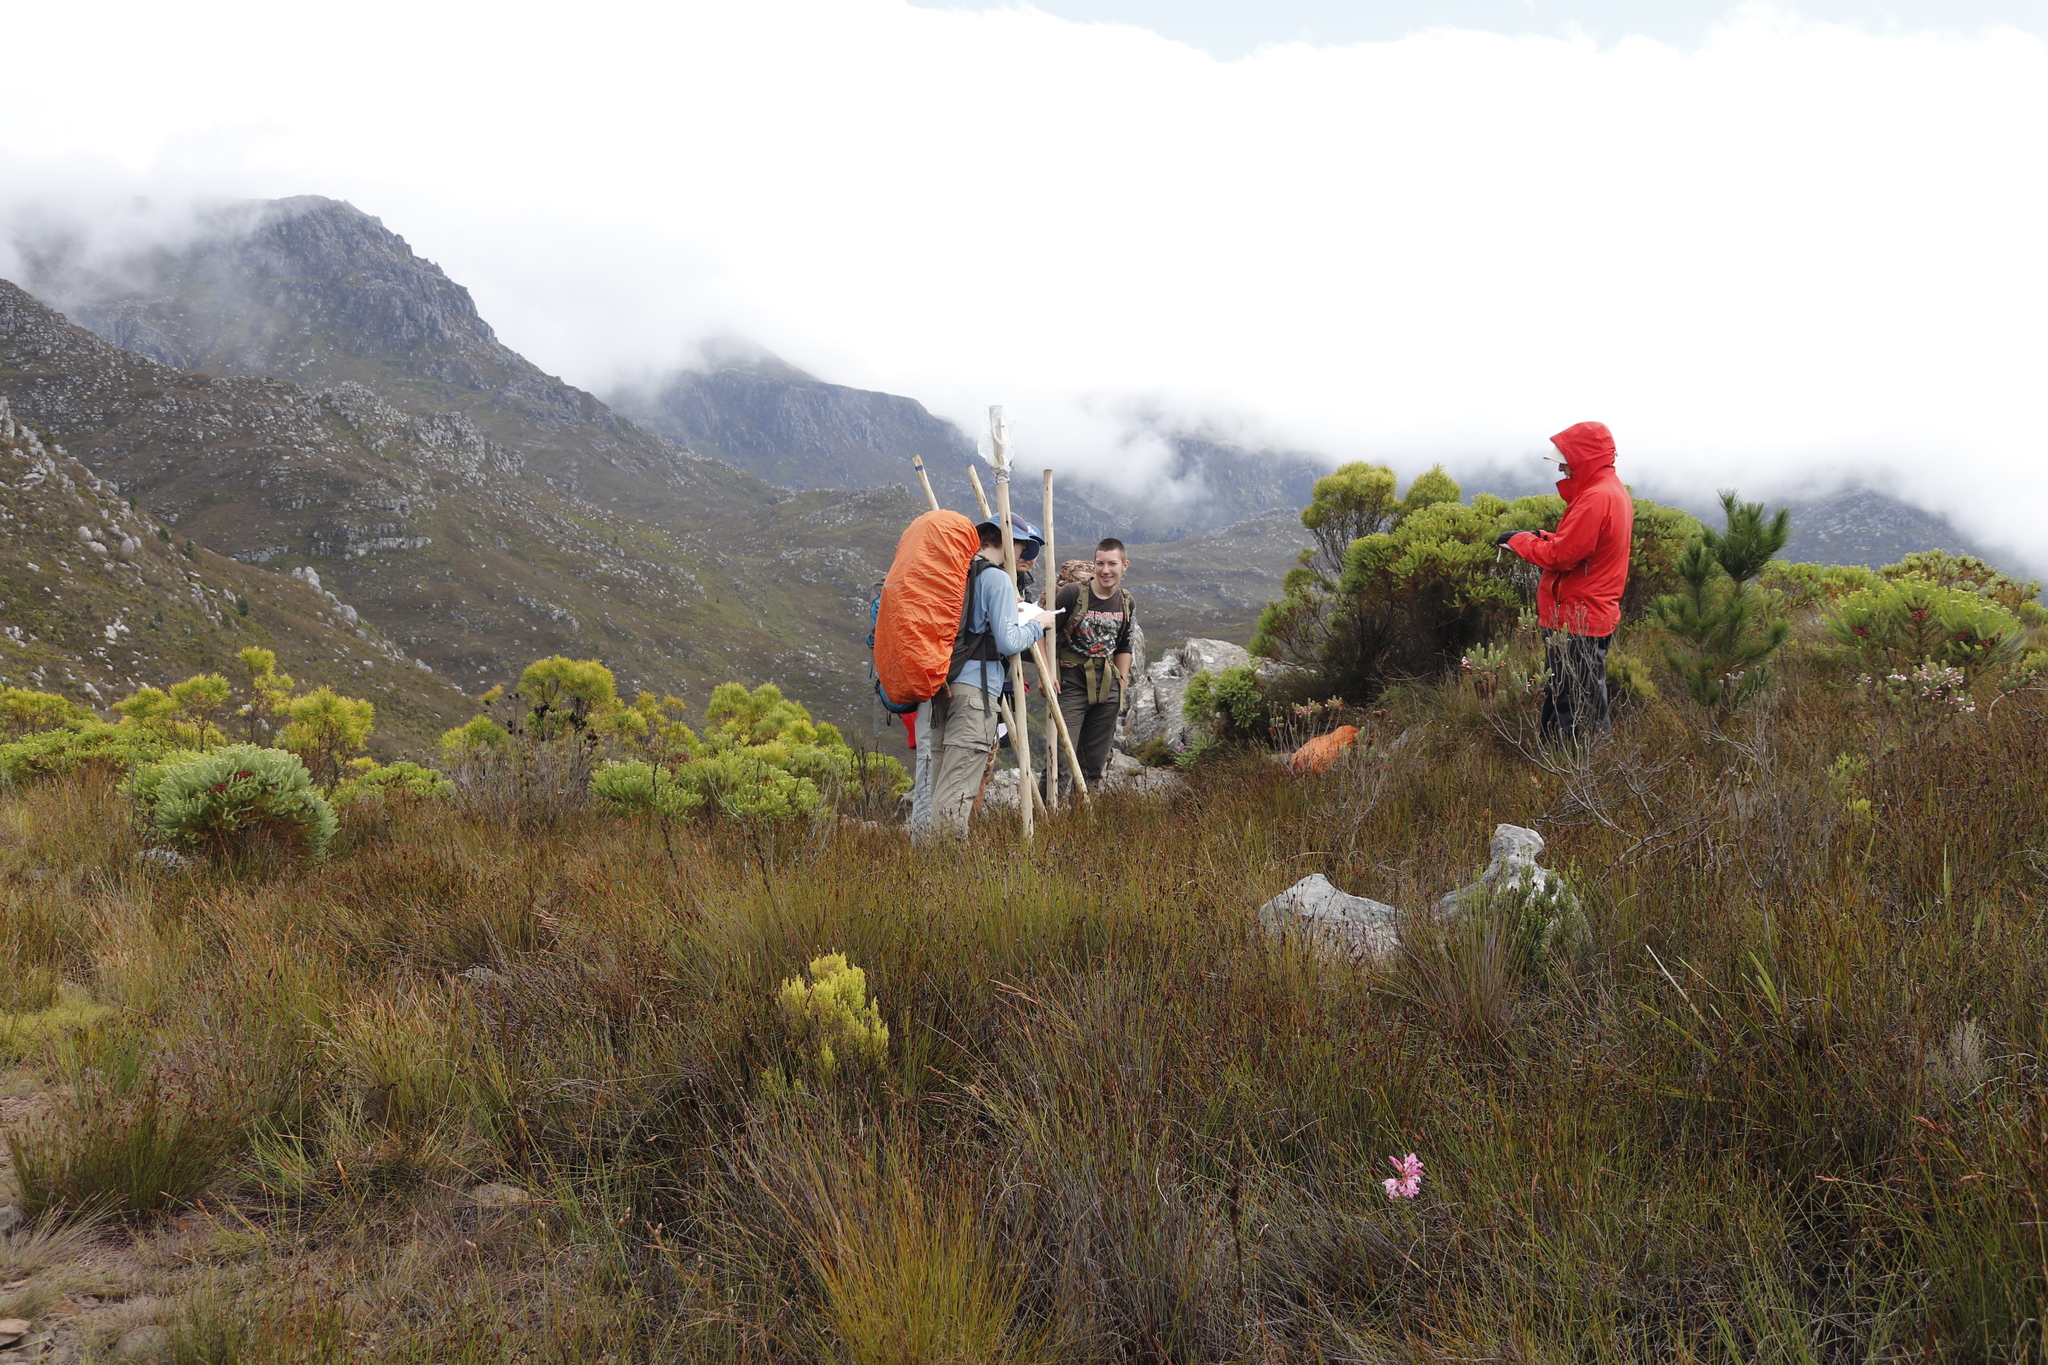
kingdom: Plantae
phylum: Tracheophyta
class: Magnoliopsida
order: Proteales
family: Proteaceae
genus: Leucadendron
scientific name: Leucadendron salicifolium
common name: Common stream conebush
